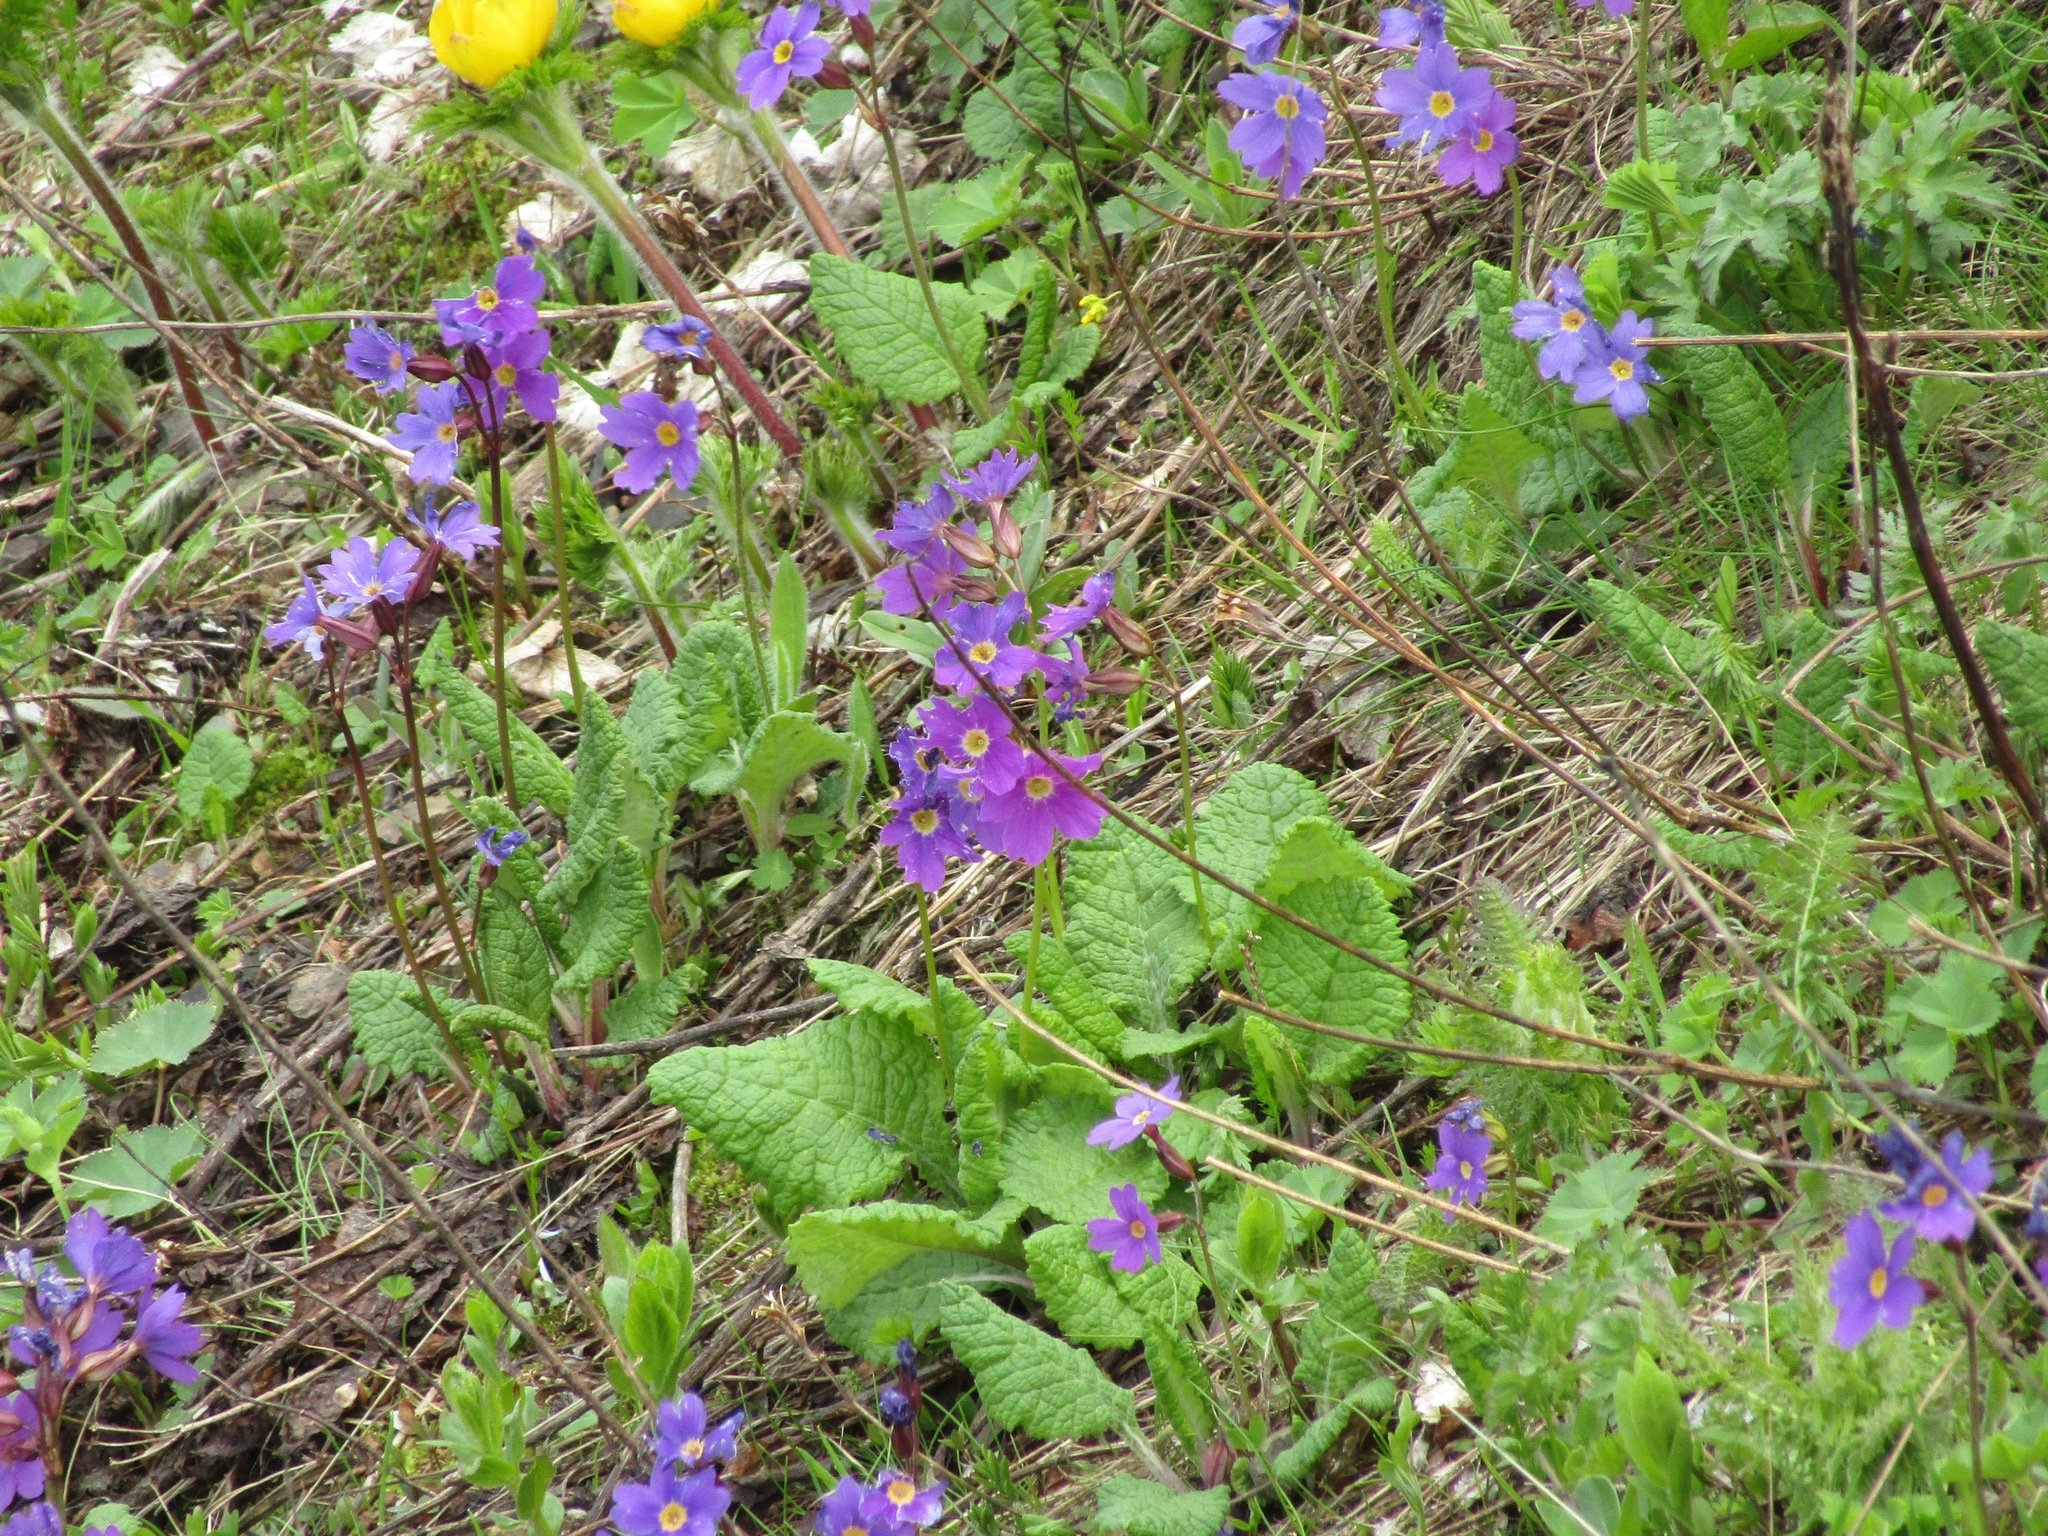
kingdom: Plantae
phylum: Tracheophyta
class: Magnoliopsida
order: Ericales
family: Primulaceae
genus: Primula
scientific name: Primula amoena
